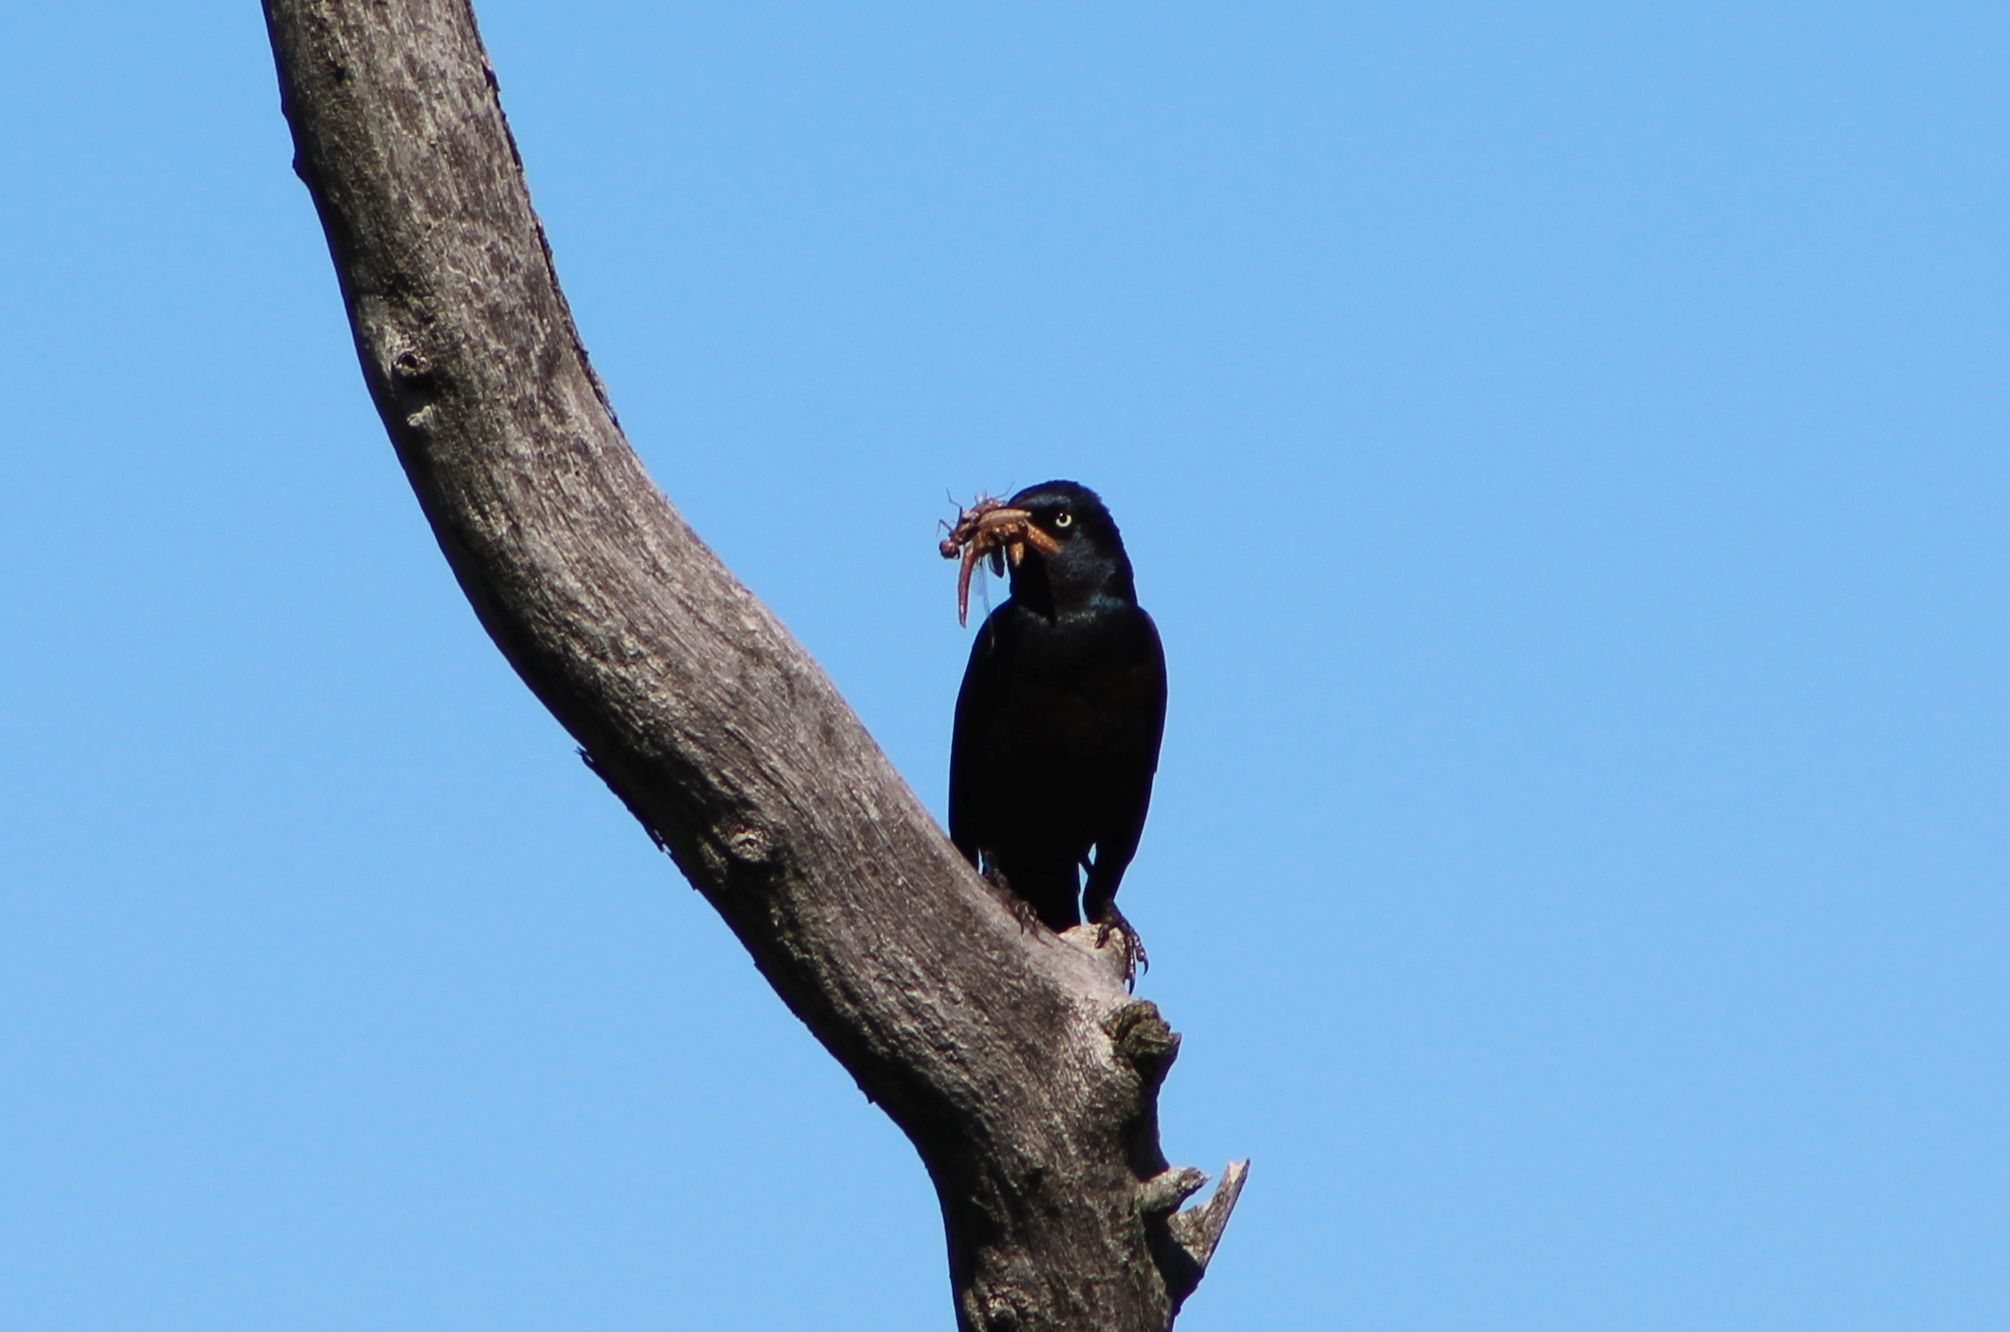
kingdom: Animalia
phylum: Chordata
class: Aves
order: Passeriformes
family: Icteridae
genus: Quiscalus
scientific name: Quiscalus quiscula
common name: Common grackle
